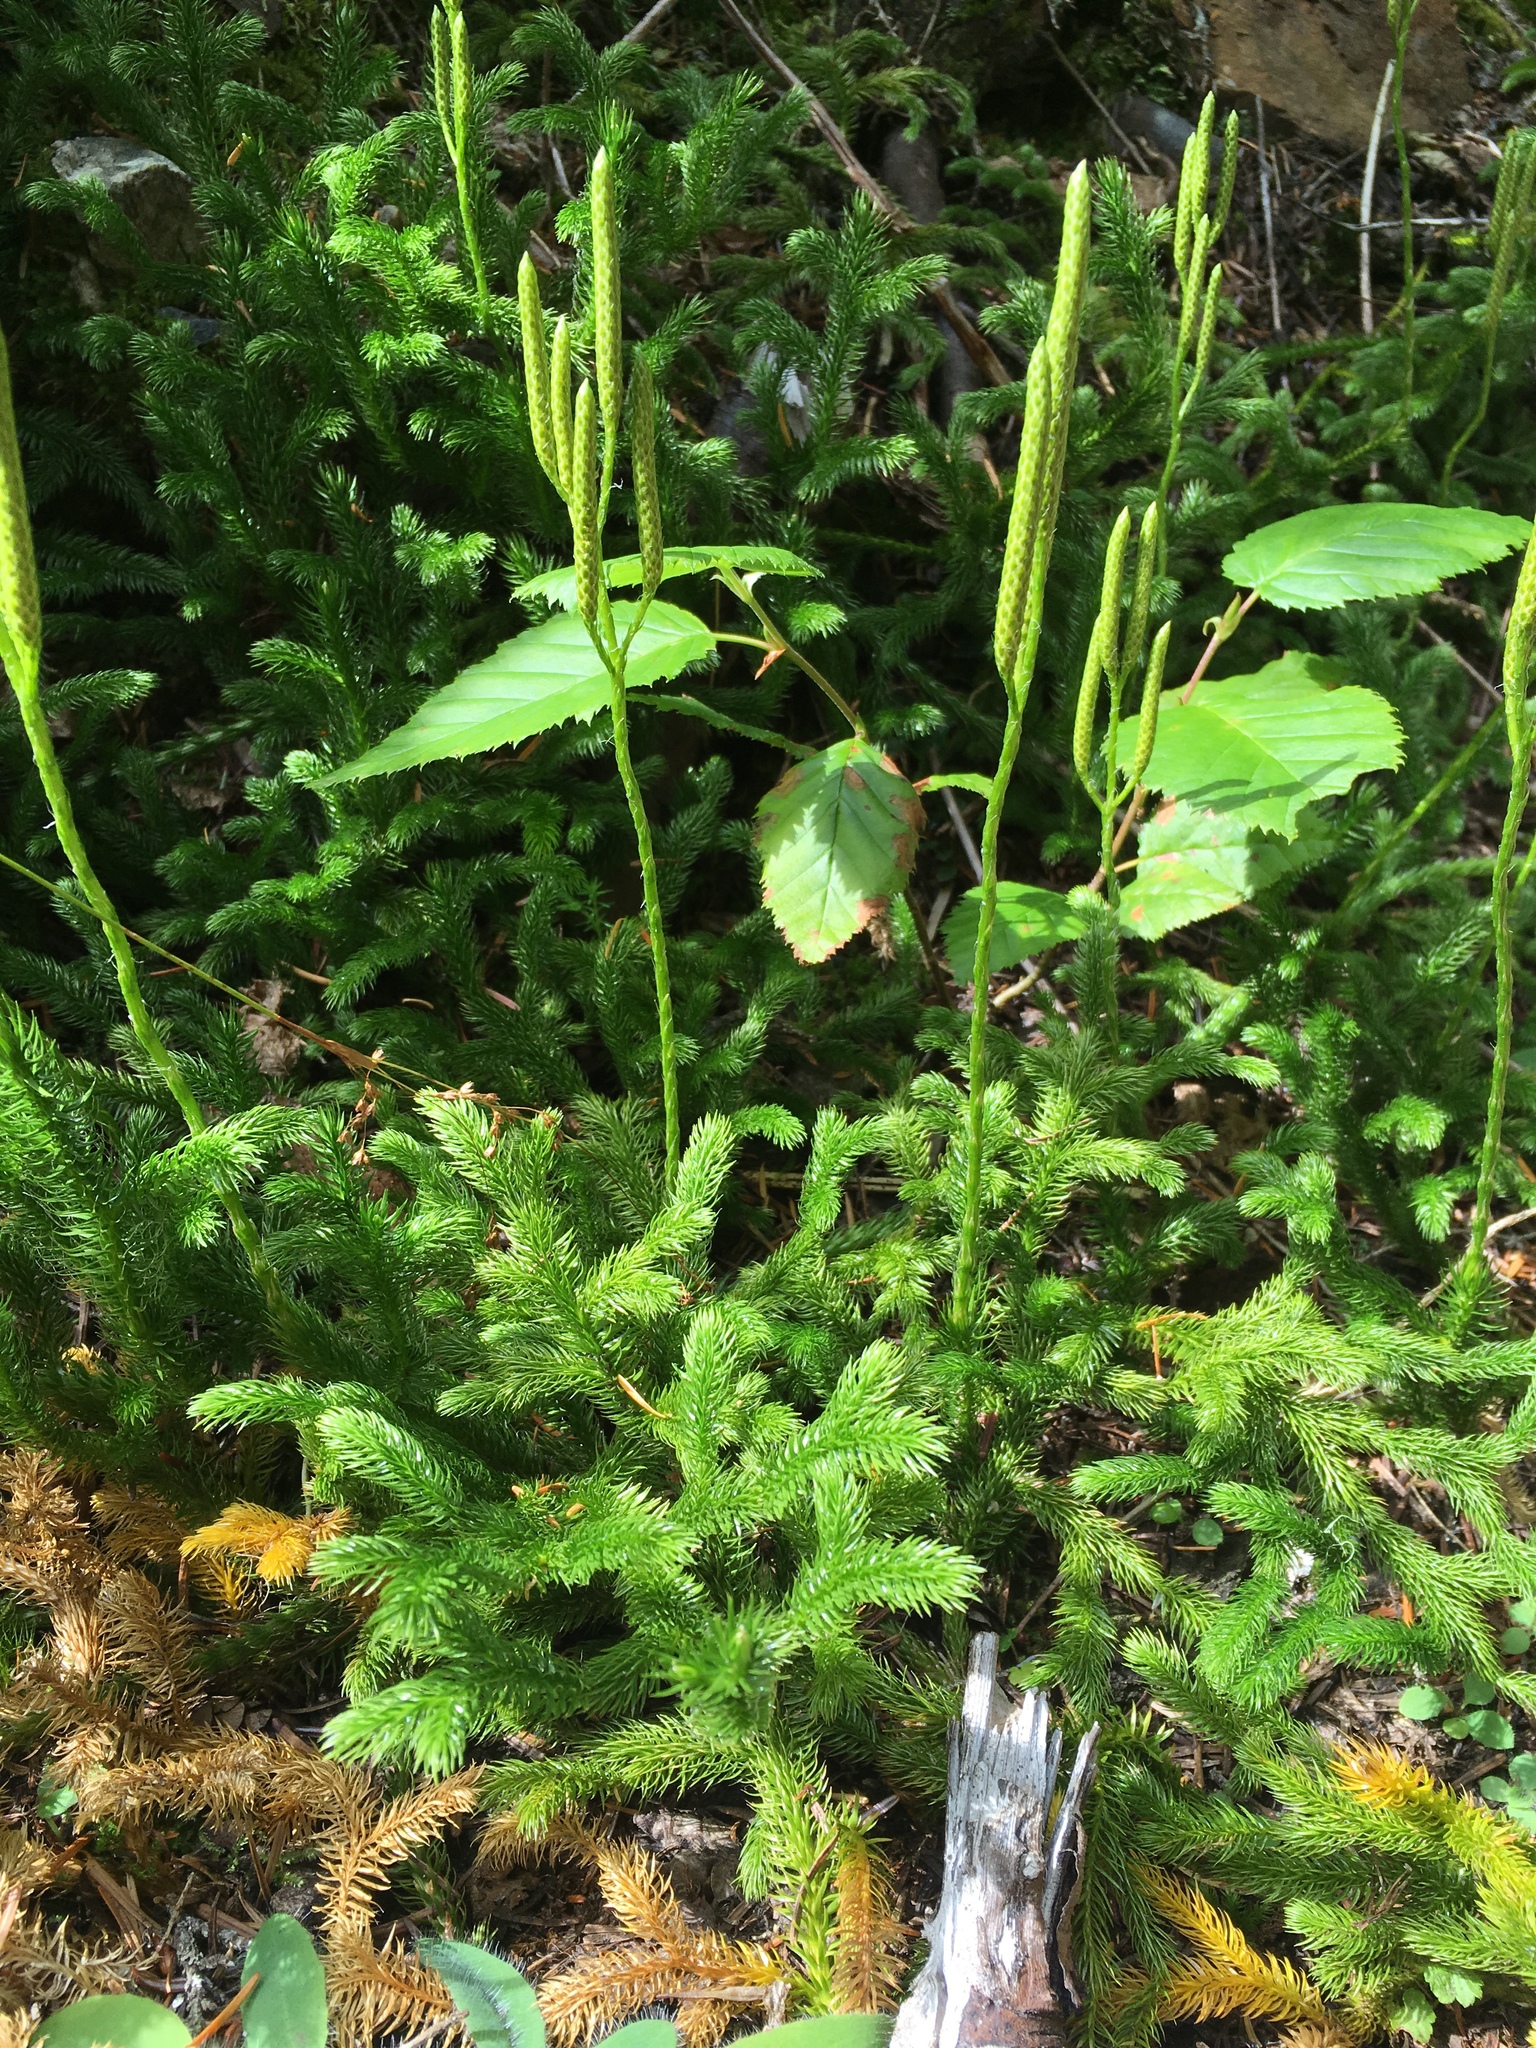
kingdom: Plantae
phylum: Tracheophyta
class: Lycopodiopsida
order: Lycopodiales
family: Lycopodiaceae
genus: Lycopodium
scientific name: Lycopodium clavatum
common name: Stag's-horn clubmoss
